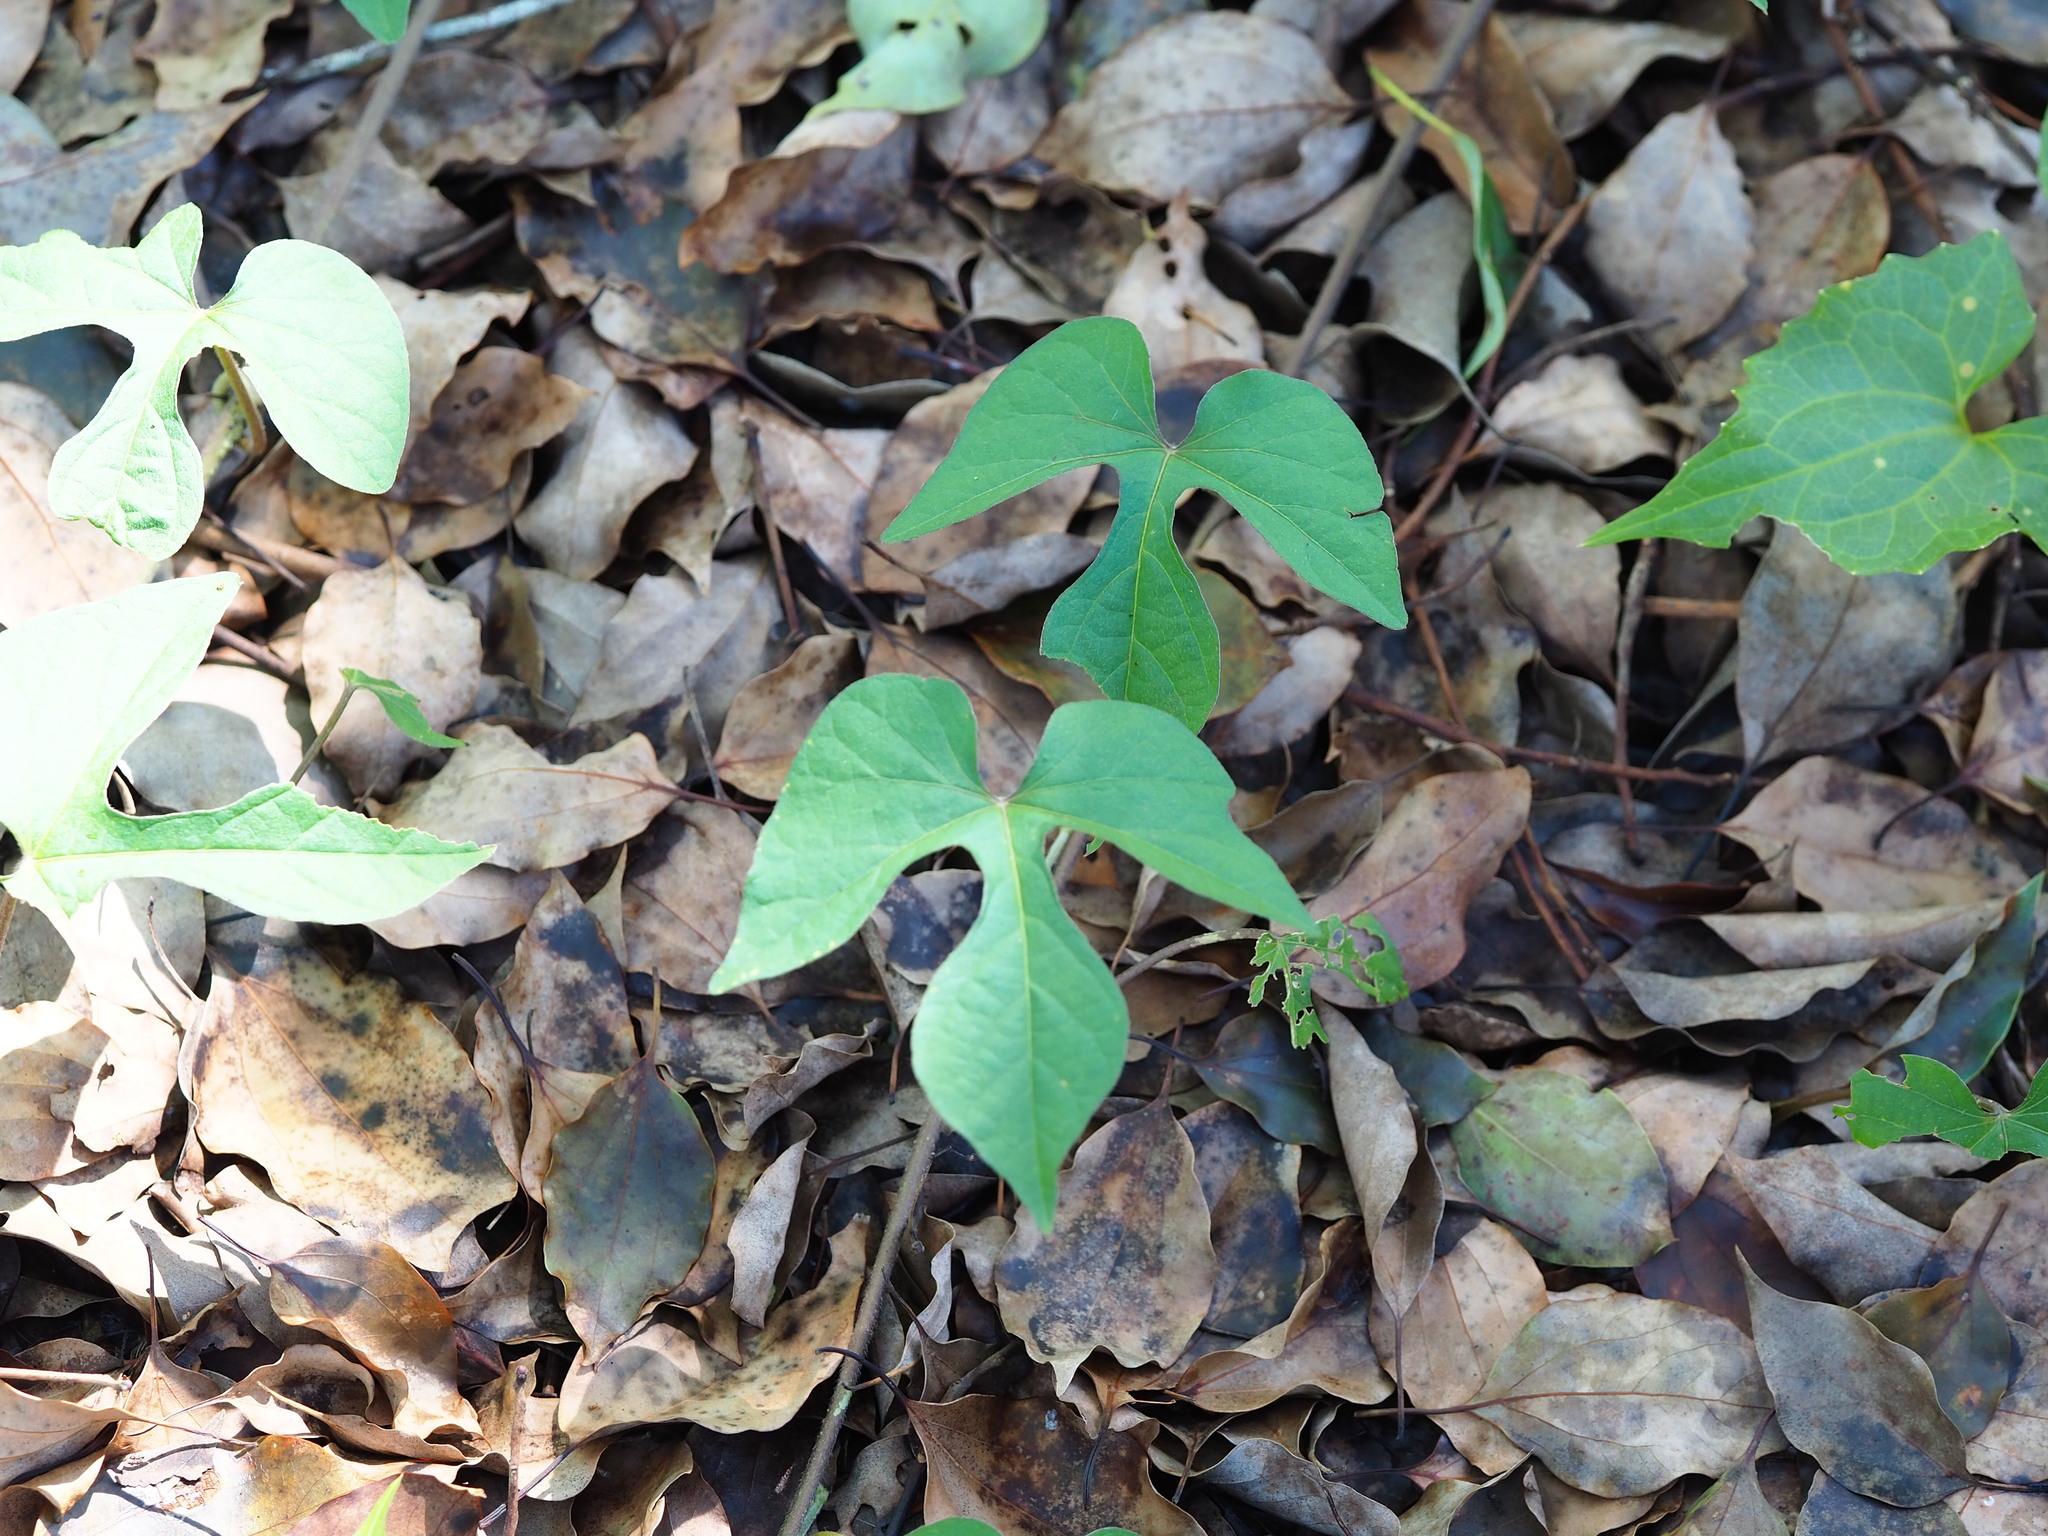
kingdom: Plantae
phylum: Tracheophyta
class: Magnoliopsida
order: Solanales
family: Convolvulaceae
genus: Ipomoea
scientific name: Ipomoea indica
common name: Blue dawnflower
